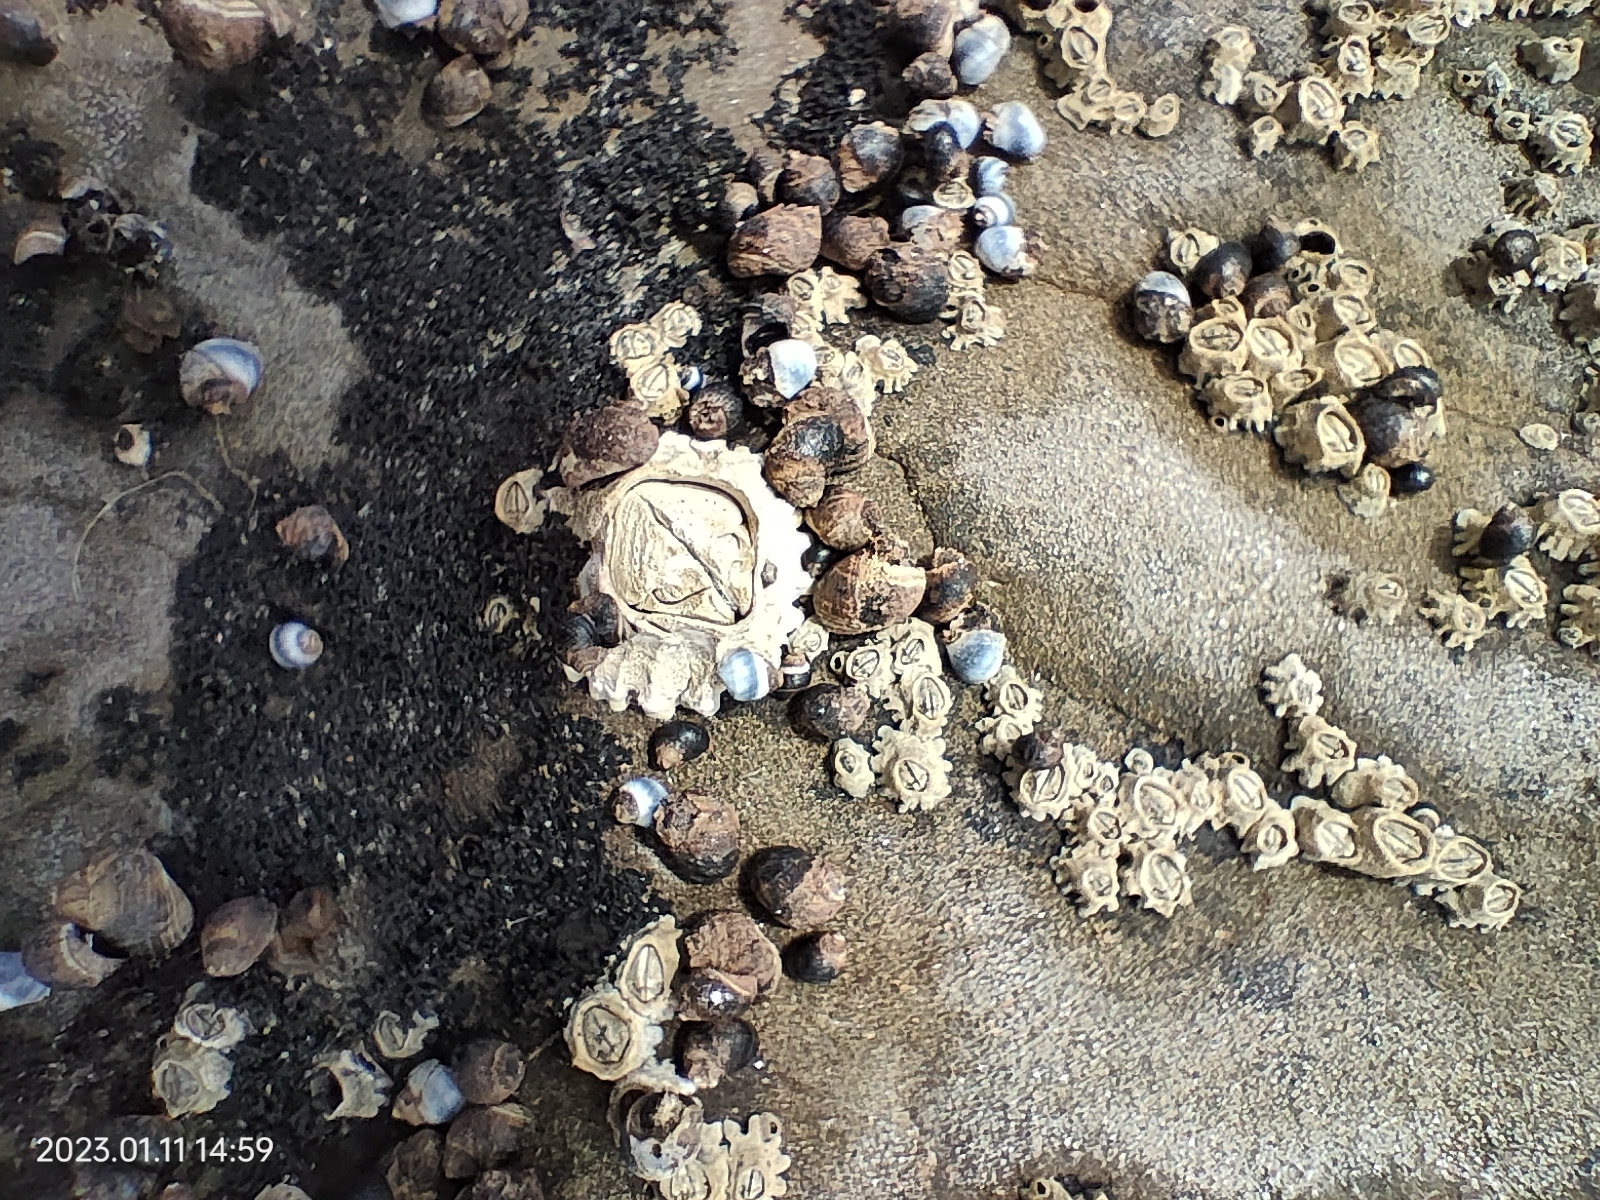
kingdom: Animalia
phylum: Arthropoda
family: Elminiidae
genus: Austrominius
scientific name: Austrominius modestus
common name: Australasian barnacle
